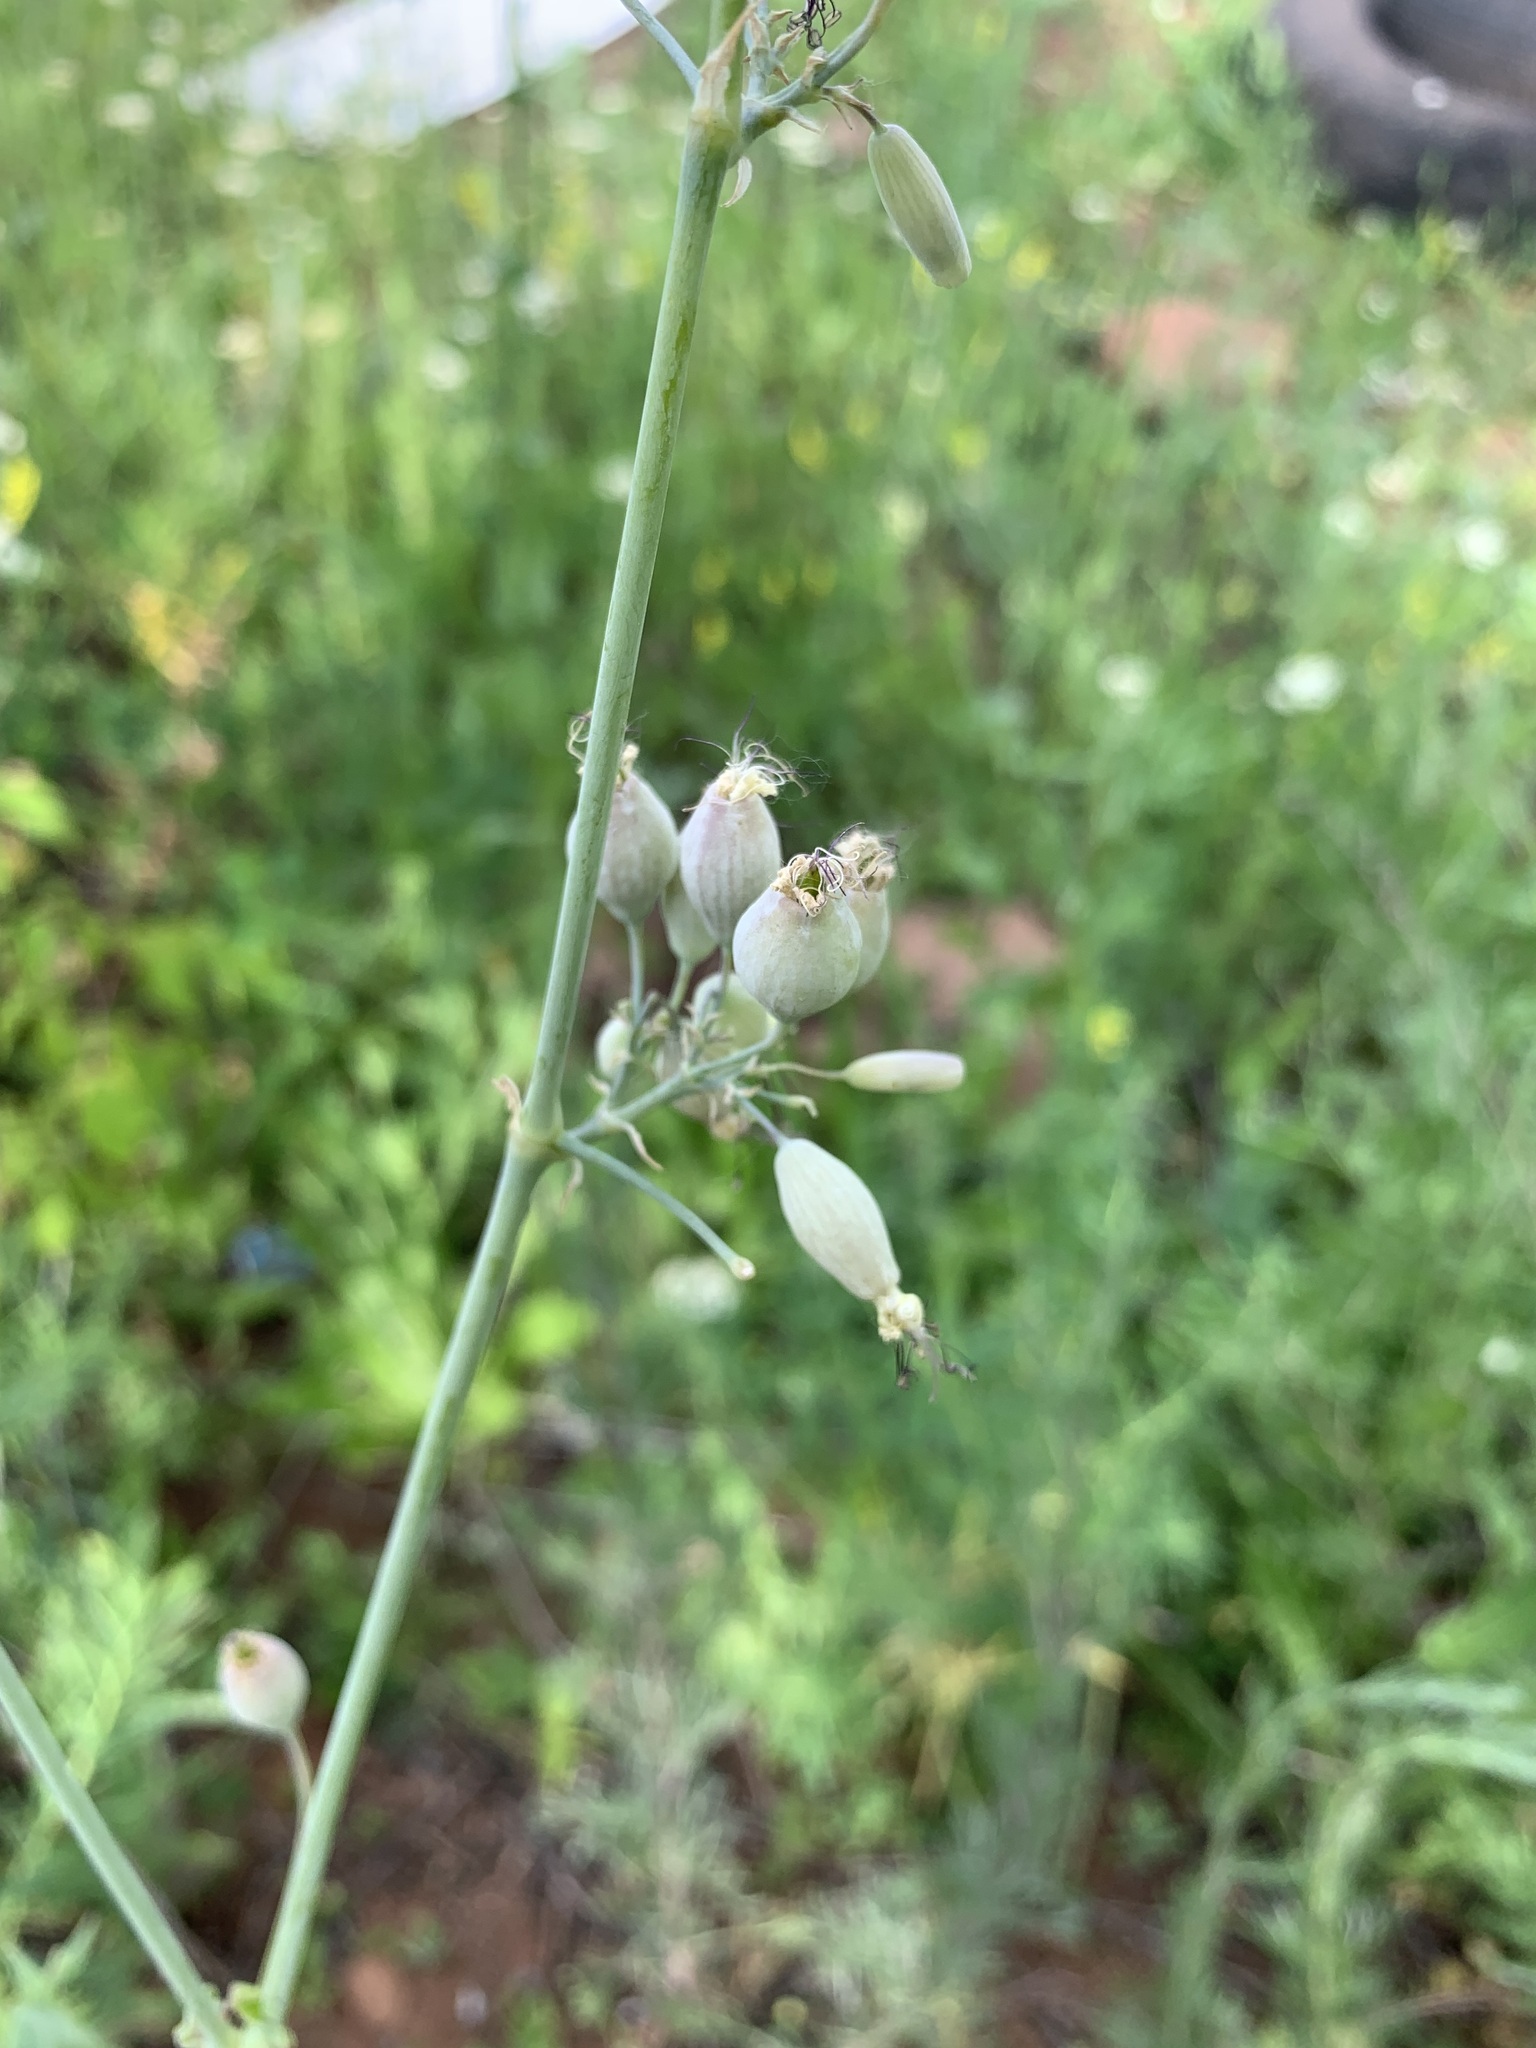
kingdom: Plantae
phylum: Tracheophyta
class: Magnoliopsida
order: Caryophyllales
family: Caryophyllaceae
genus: Silene
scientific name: Silene csereii
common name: Balkan catchfly
